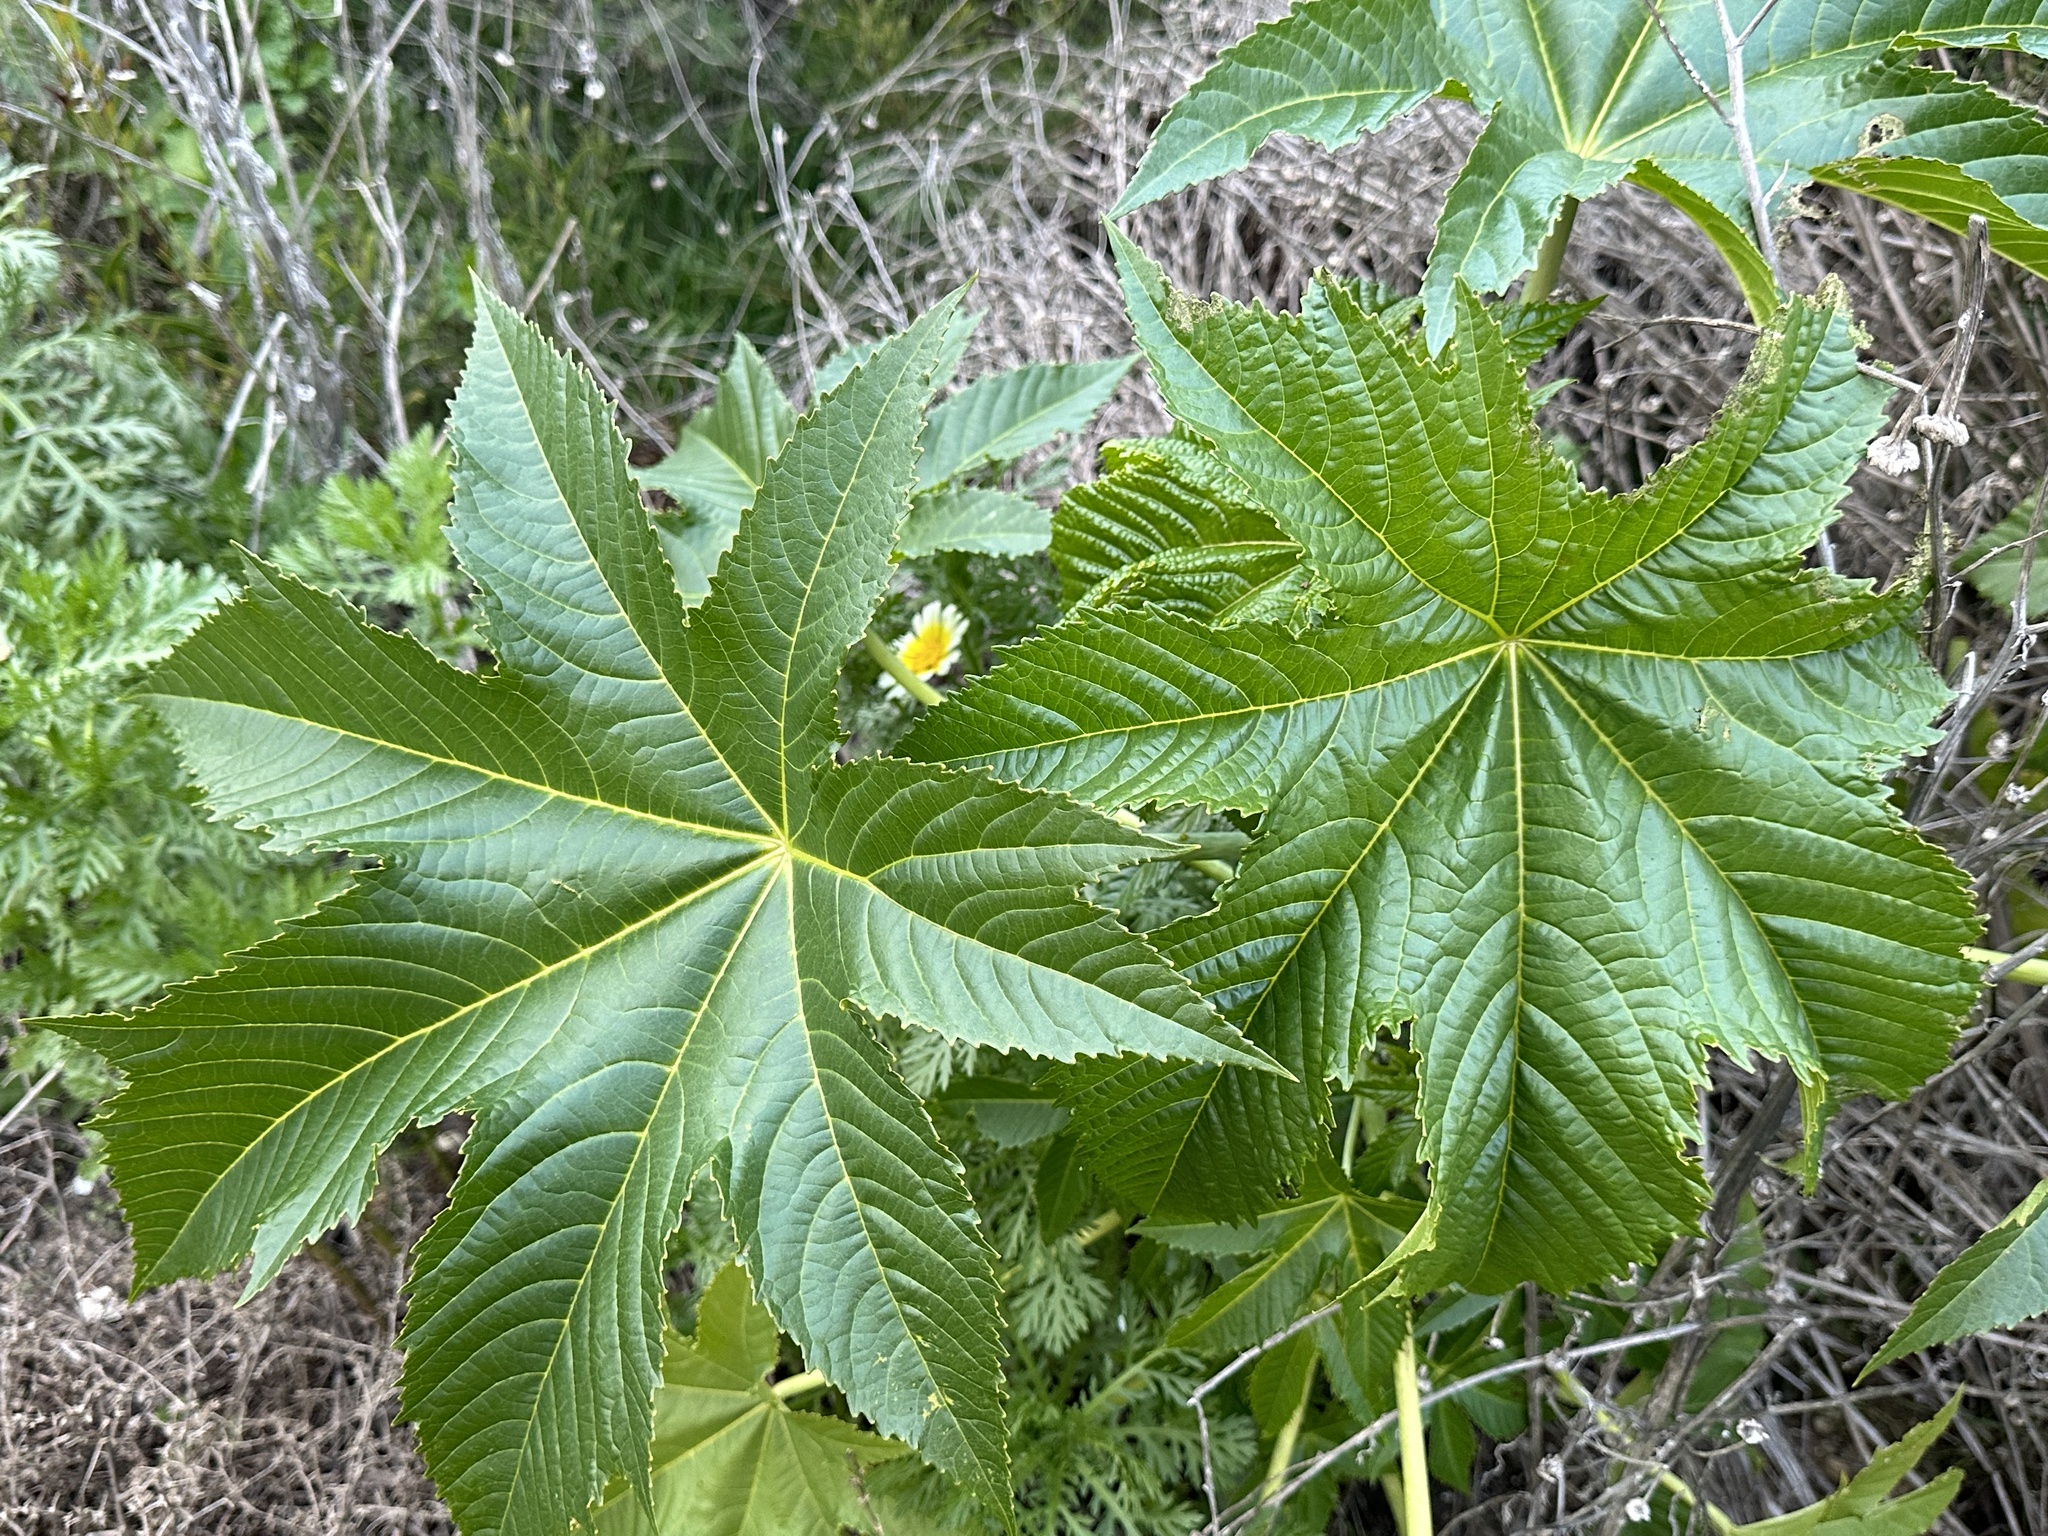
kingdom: Plantae
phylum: Tracheophyta
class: Magnoliopsida
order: Malpighiales
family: Euphorbiaceae
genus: Ricinus
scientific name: Ricinus communis
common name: Castor-oil-plant
